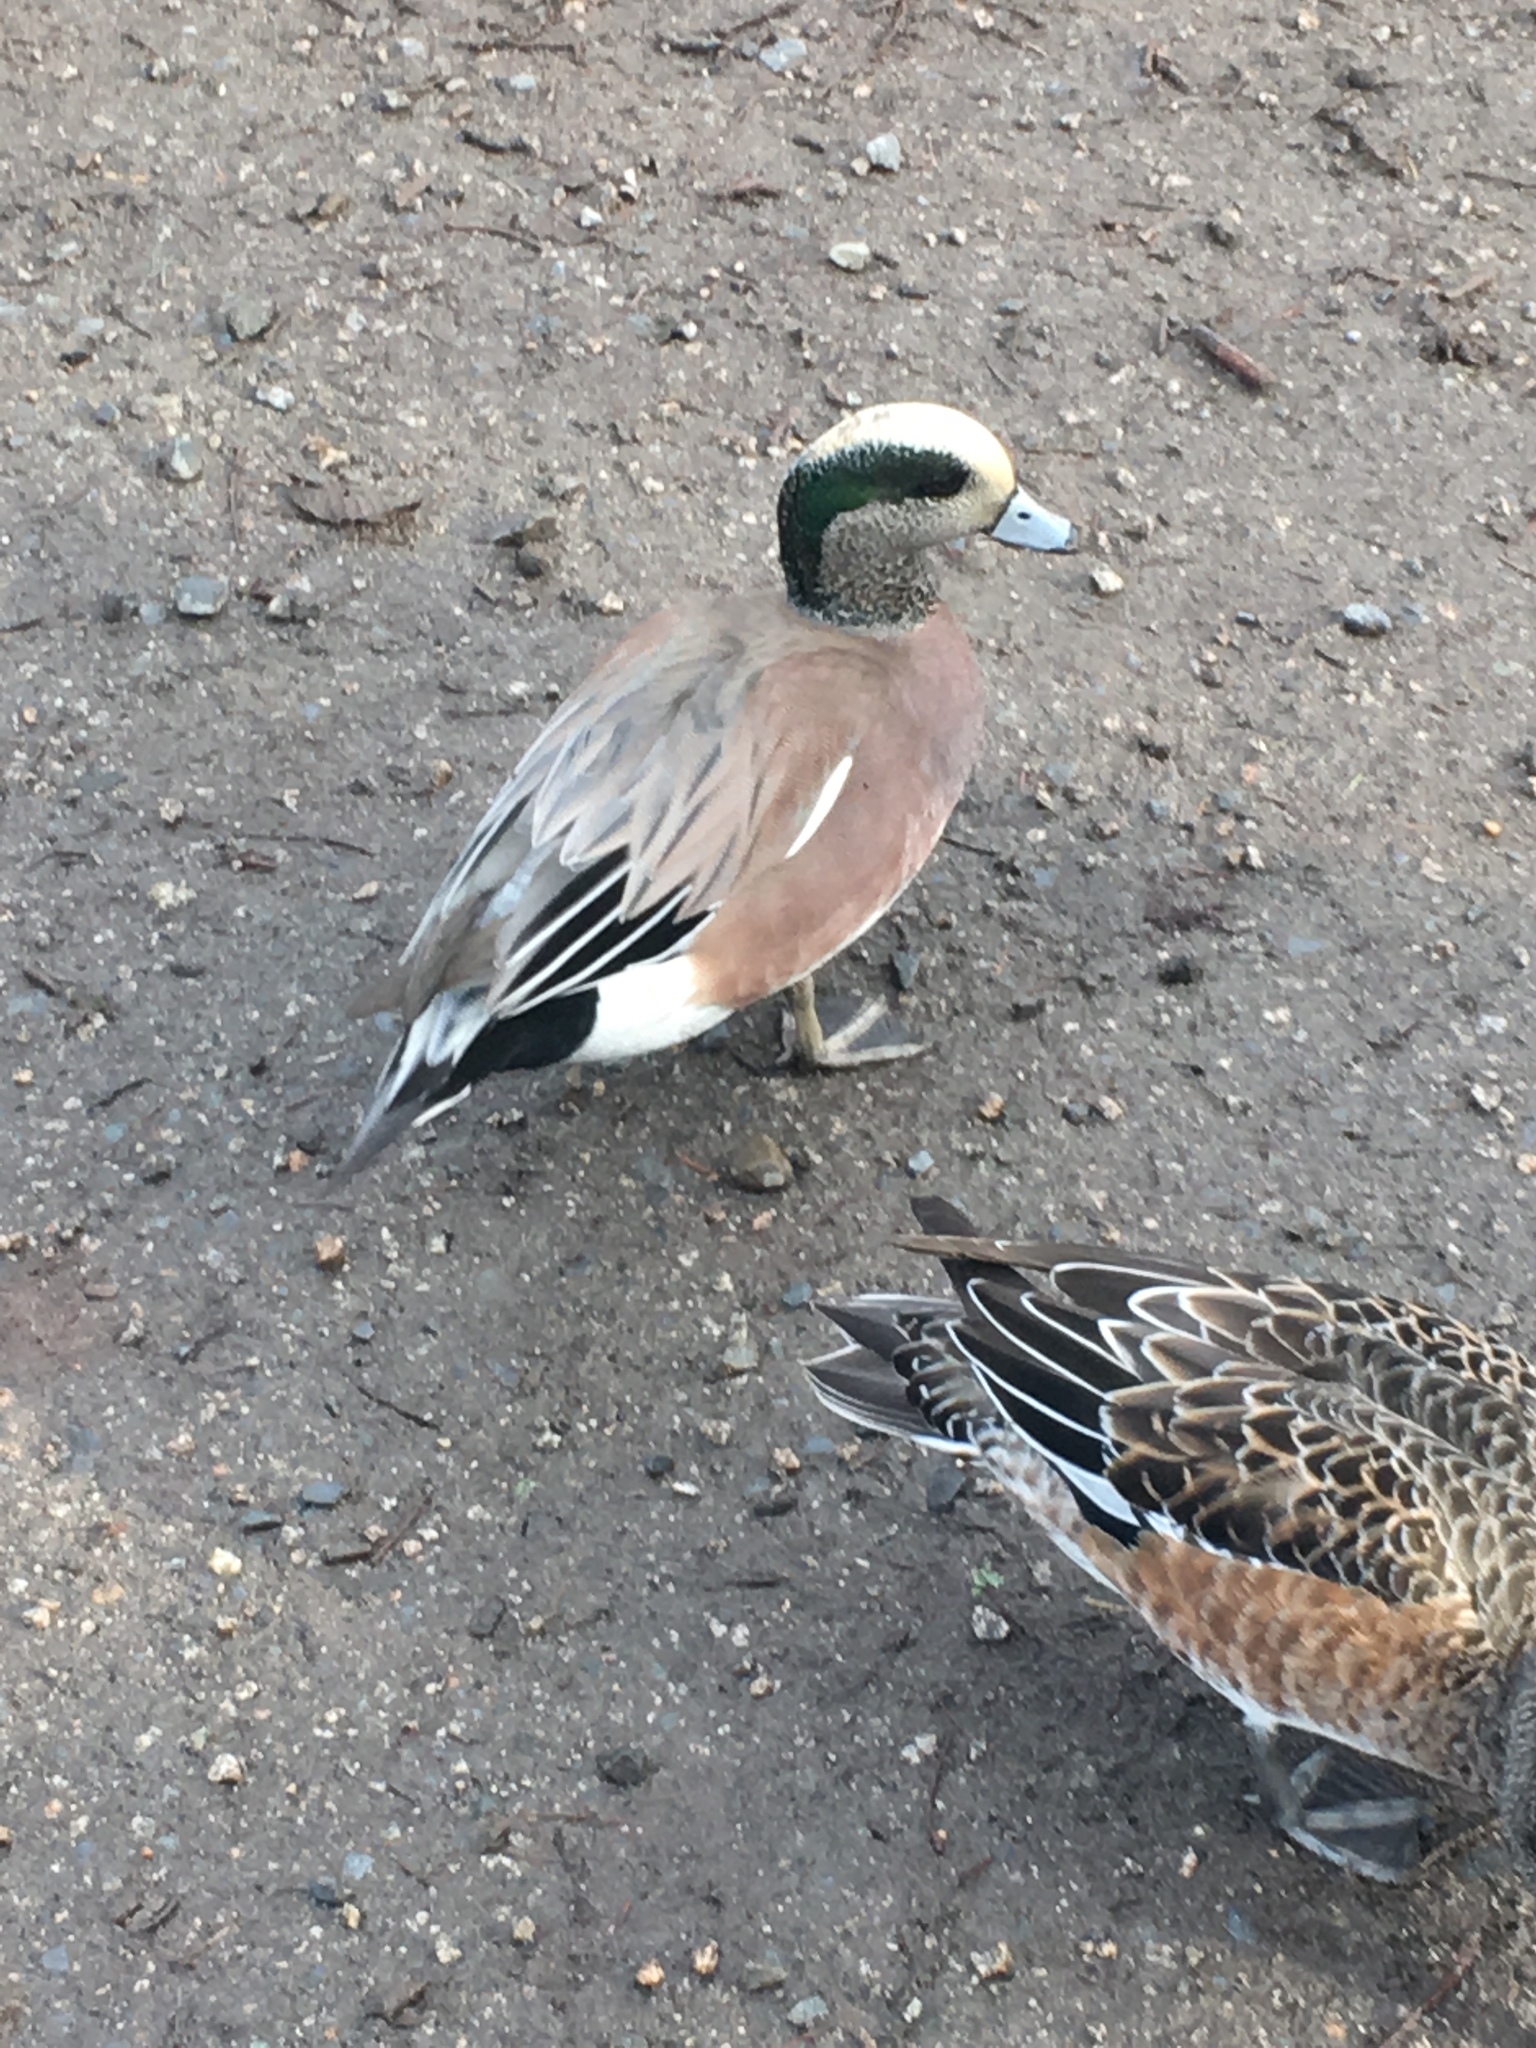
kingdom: Animalia
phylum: Chordata
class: Aves
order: Anseriformes
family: Anatidae
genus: Mareca
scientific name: Mareca americana
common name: American wigeon
